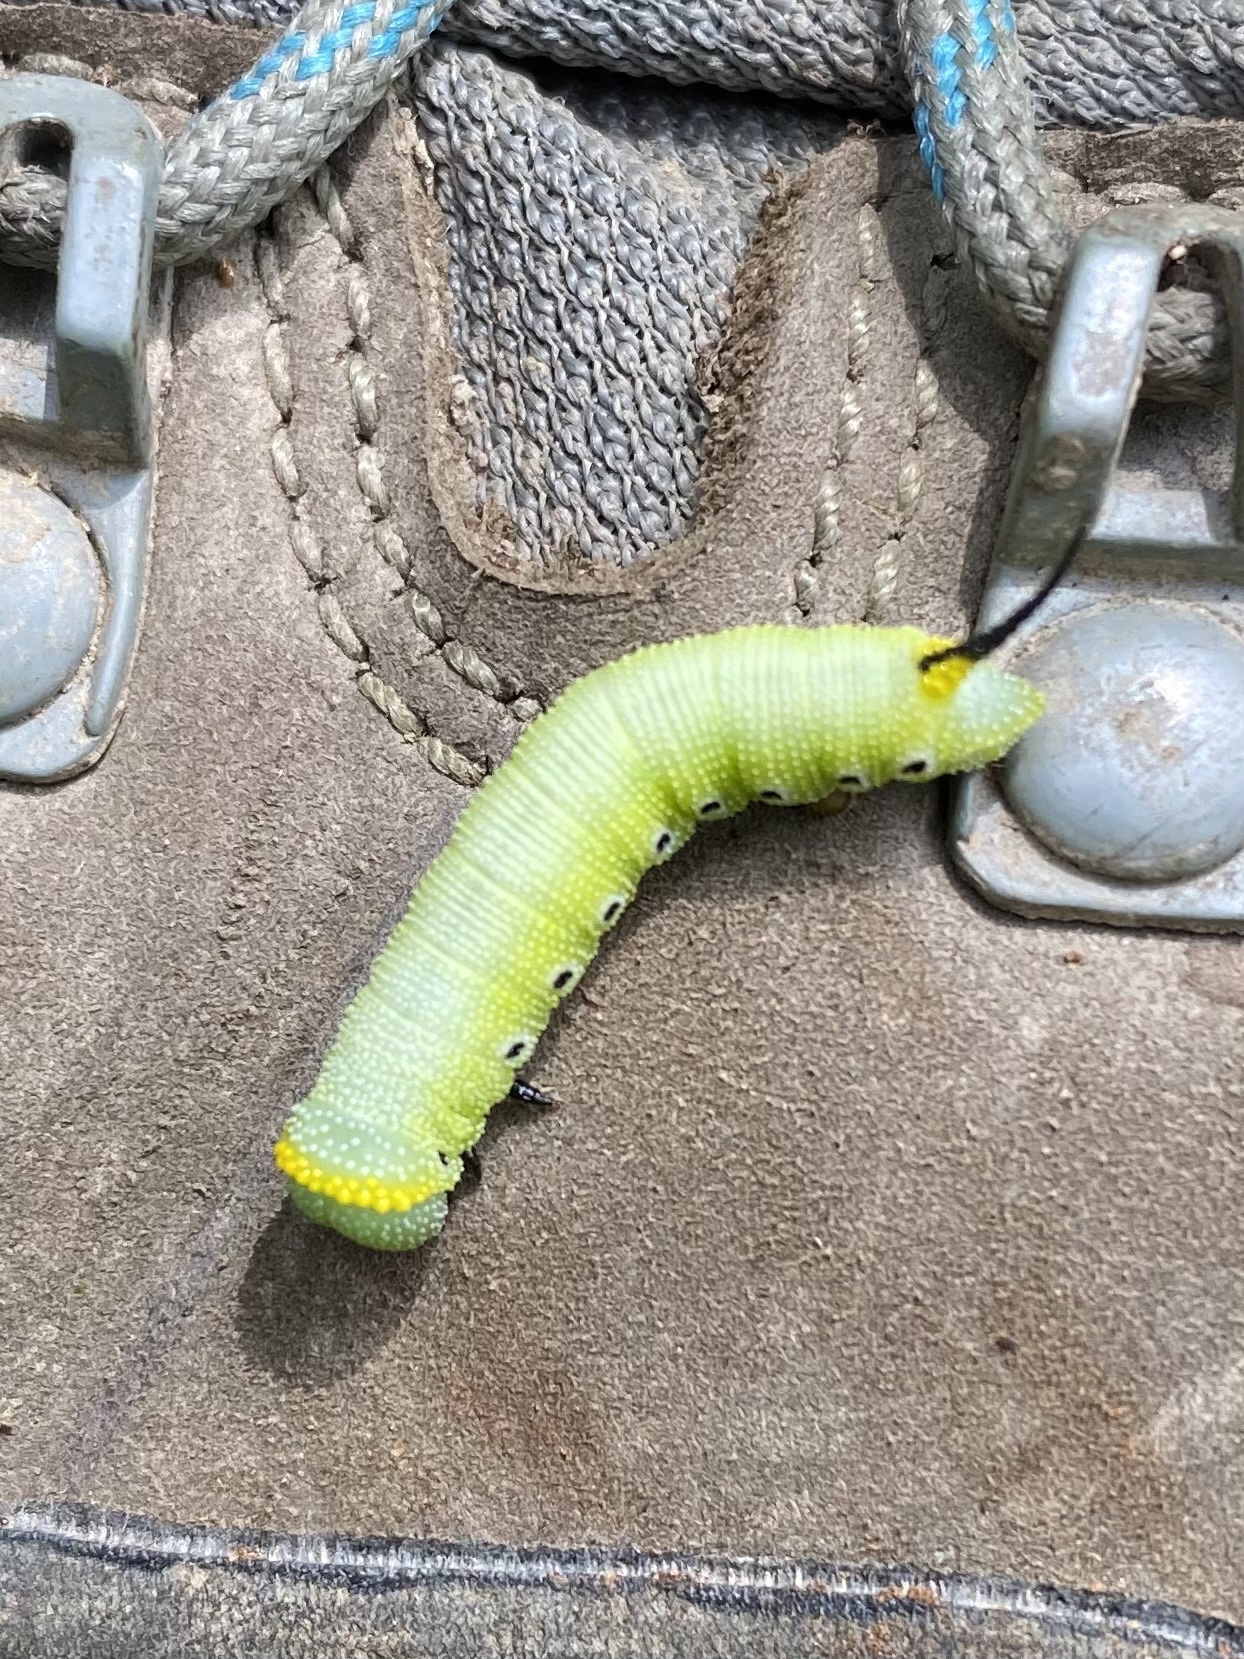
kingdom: Animalia
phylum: Arthropoda
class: Insecta
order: Lepidoptera
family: Sphingidae
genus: Hemaris
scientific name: Hemaris diffinis
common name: Bumblebee moth
